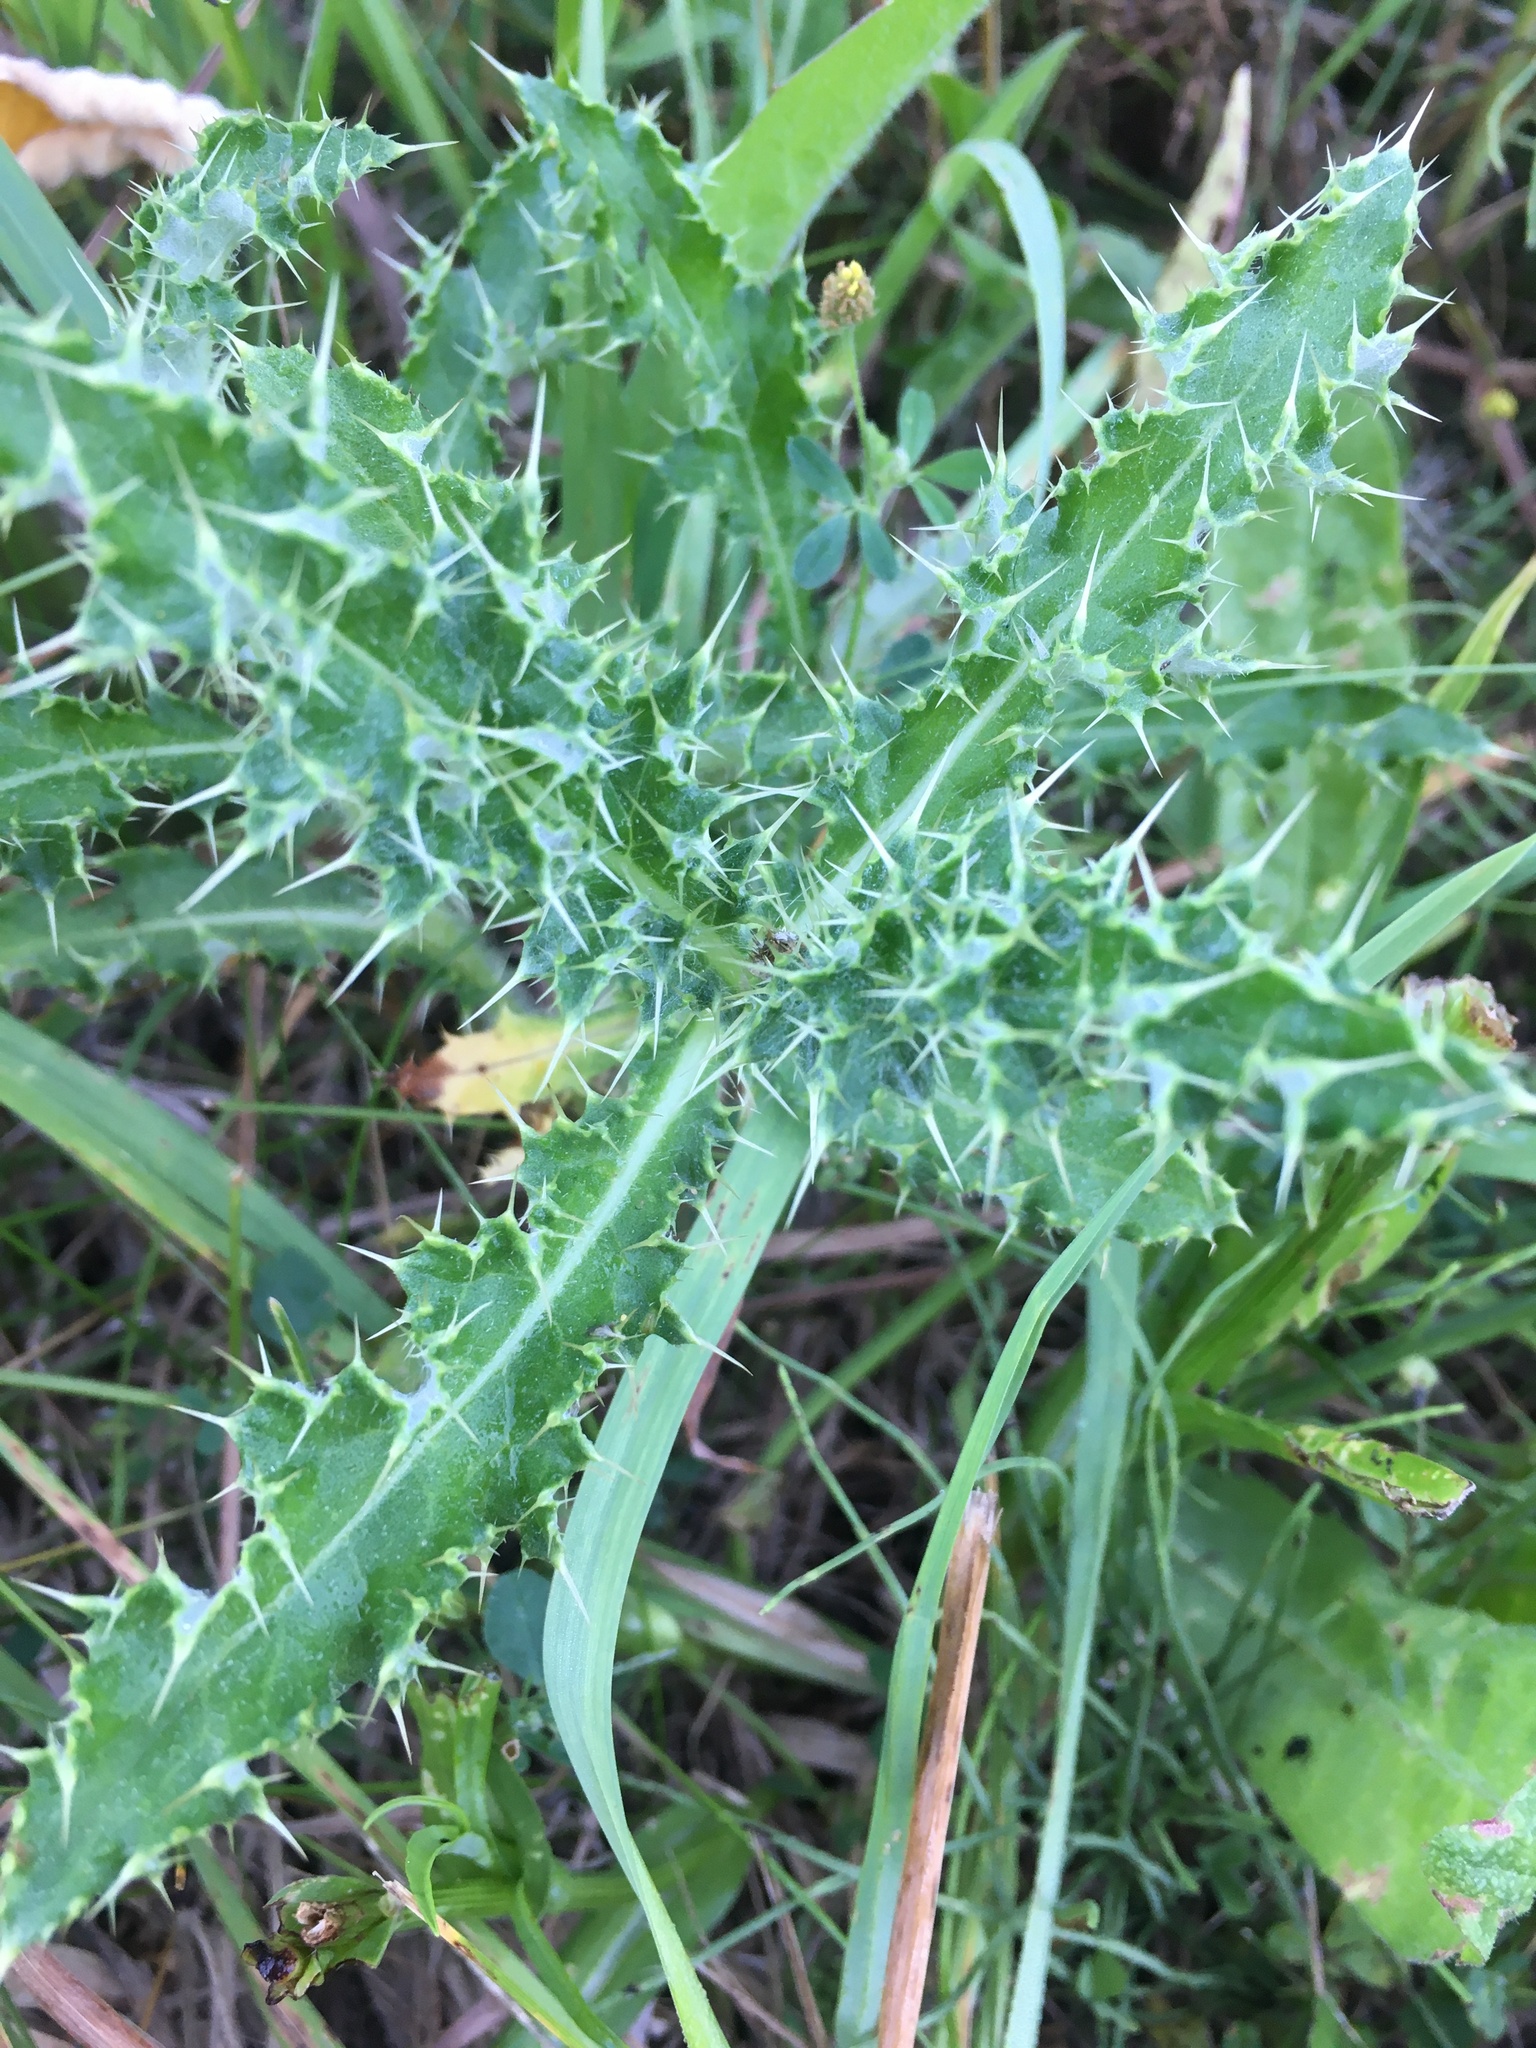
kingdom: Plantae
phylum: Tracheophyta
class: Magnoliopsida
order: Asterales
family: Asteraceae
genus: Cirsium
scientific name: Cirsium arvense
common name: Creeping thistle
